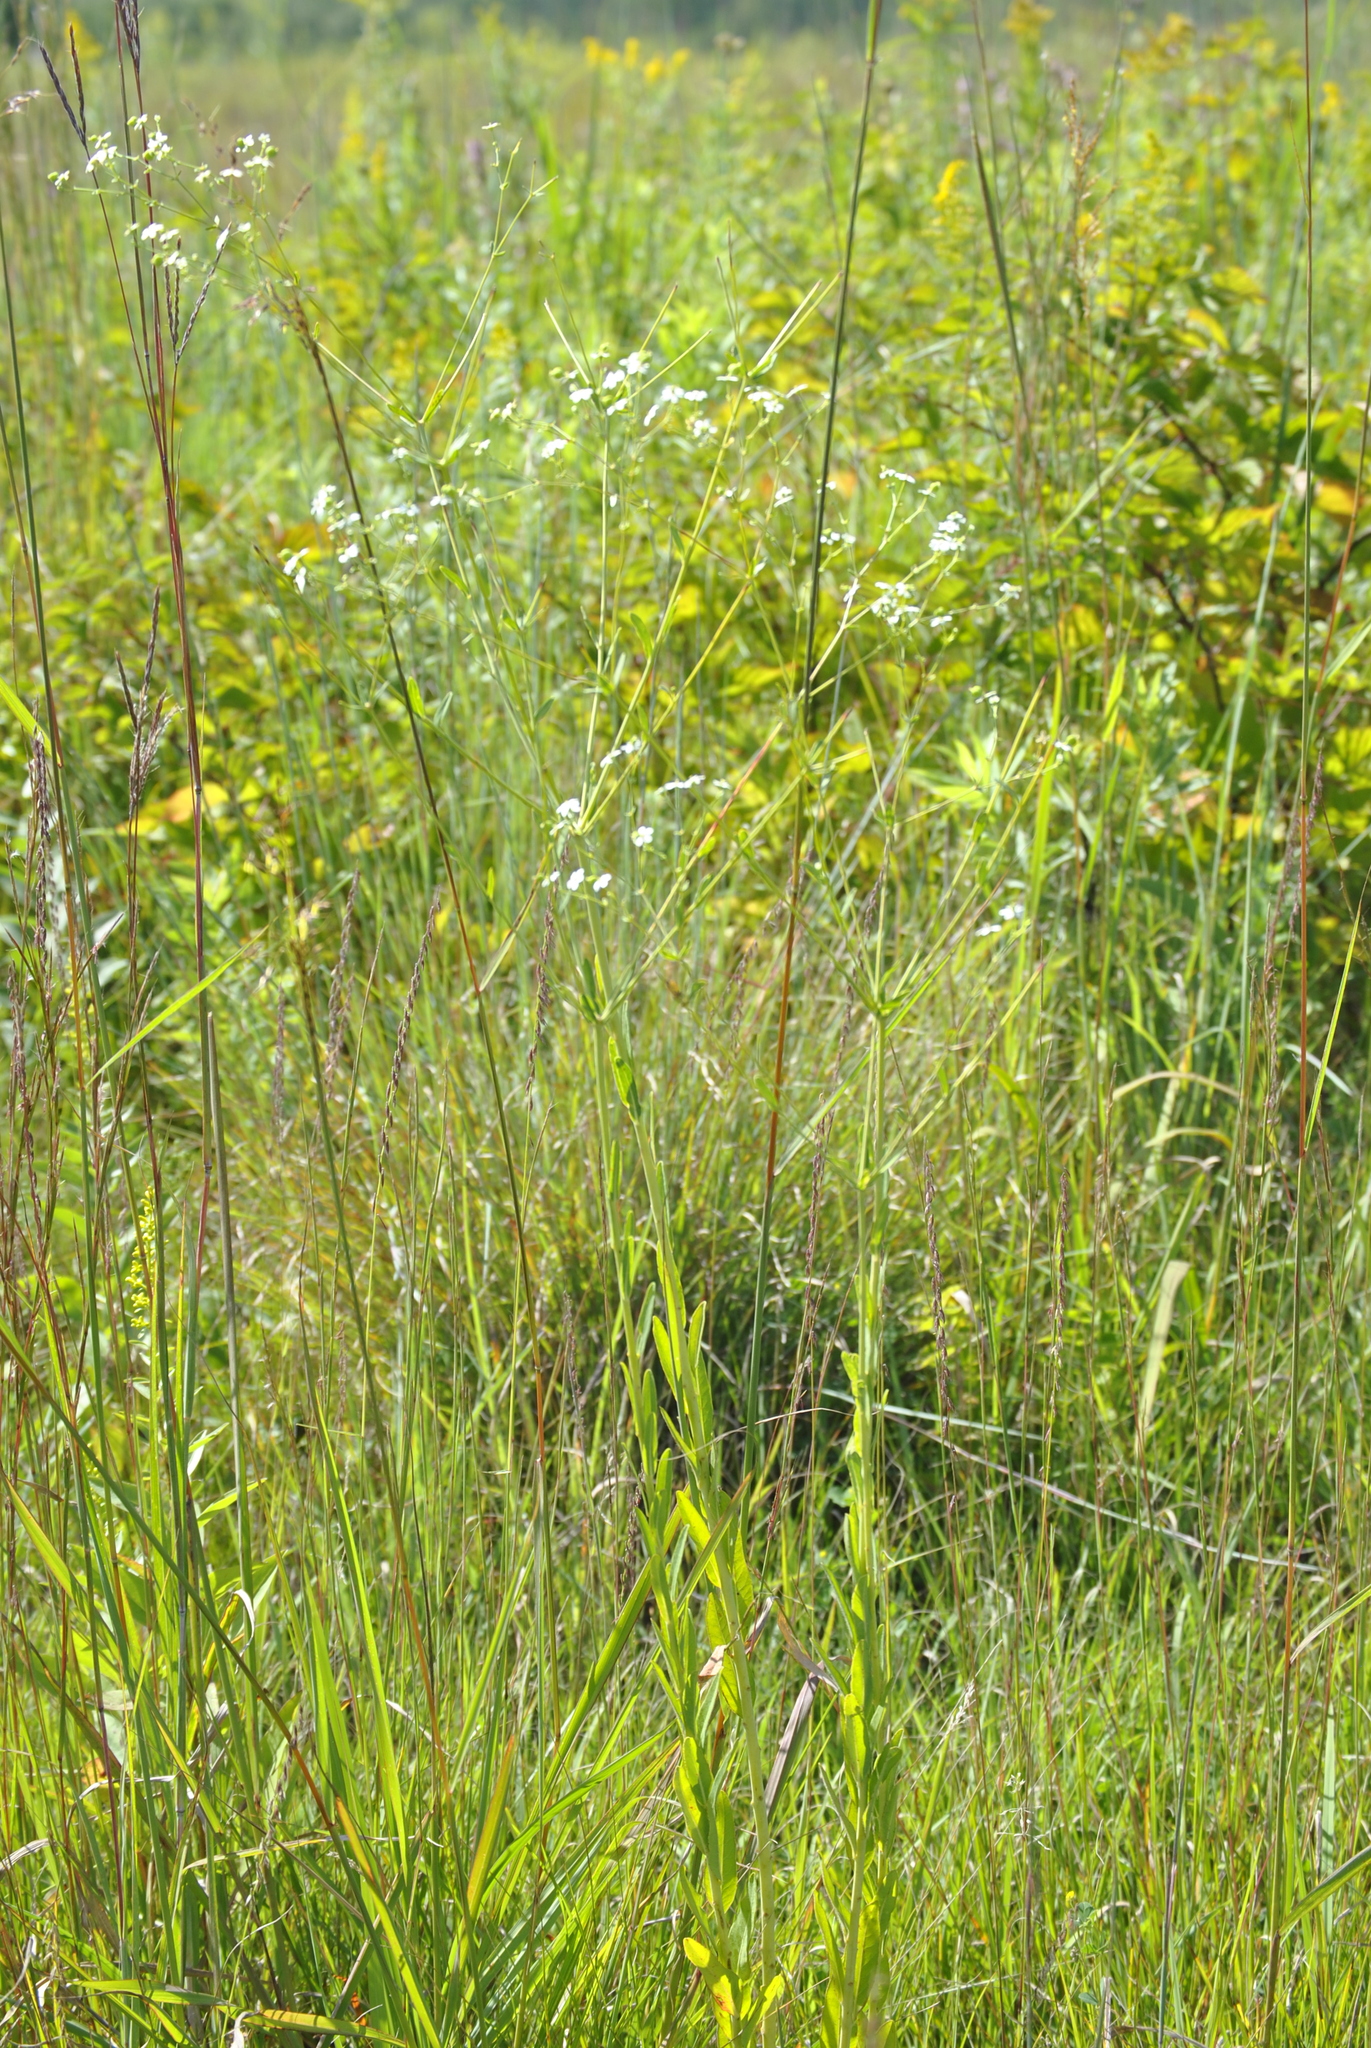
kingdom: Plantae
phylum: Tracheophyta
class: Magnoliopsida
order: Malpighiales
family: Euphorbiaceae
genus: Euphorbia
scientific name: Euphorbia corollata
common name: Flowering spurge
